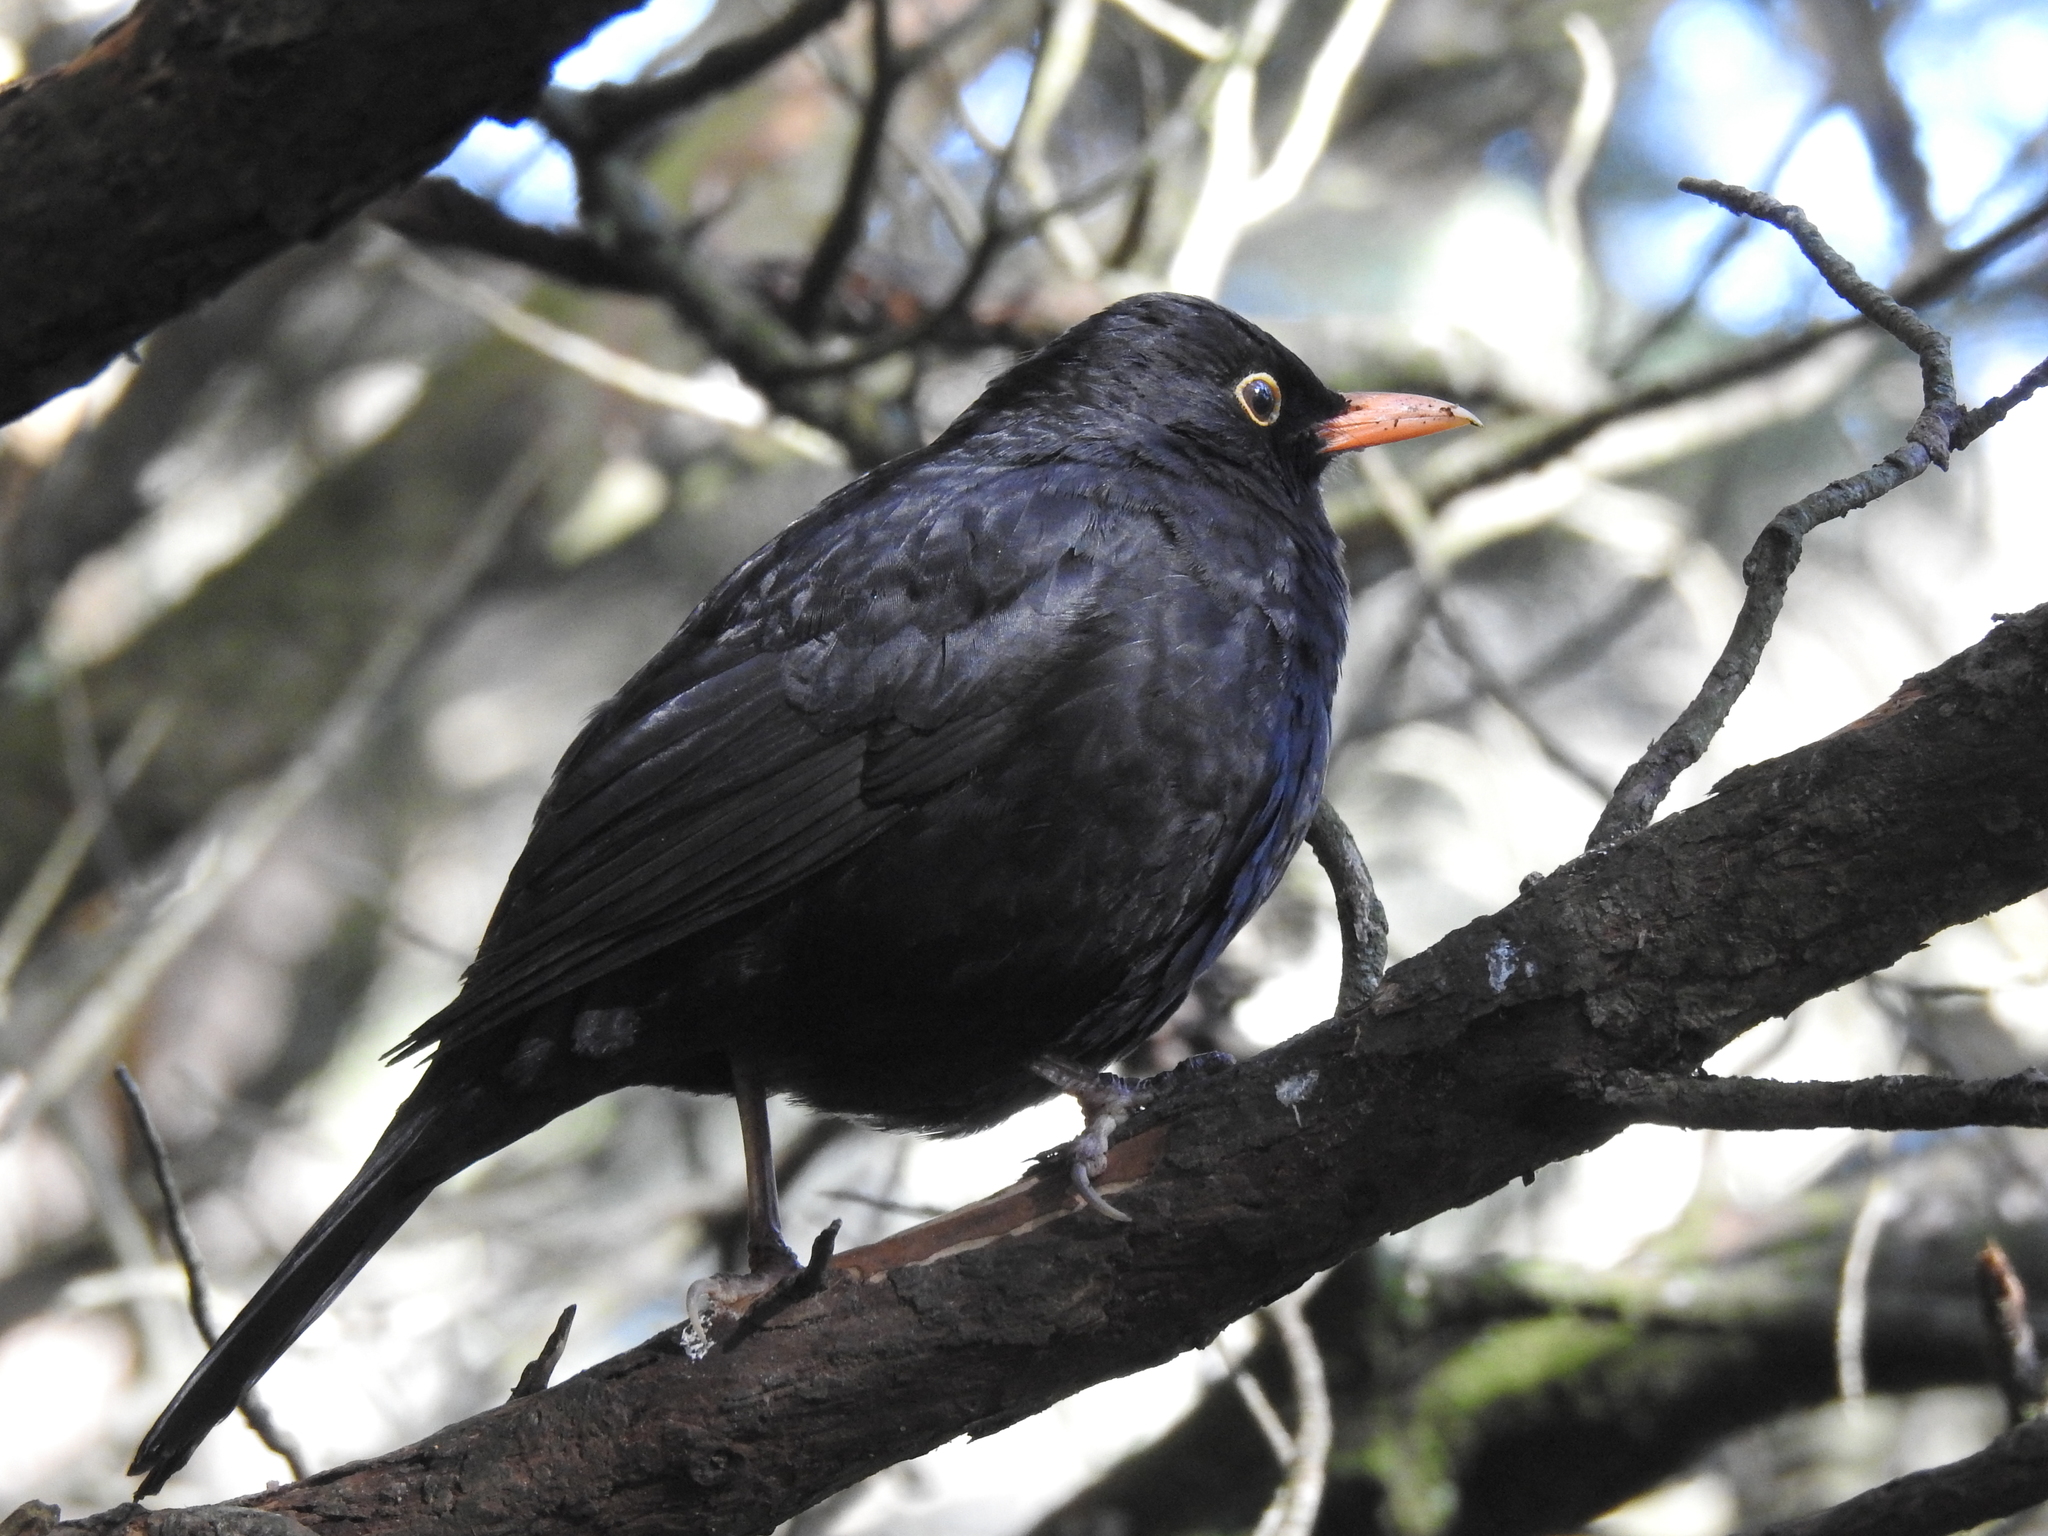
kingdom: Animalia
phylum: Chordata
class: Aves
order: Passeriformes
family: Turdidae
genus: Turdus
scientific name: Turdus merula
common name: Common blackbird
